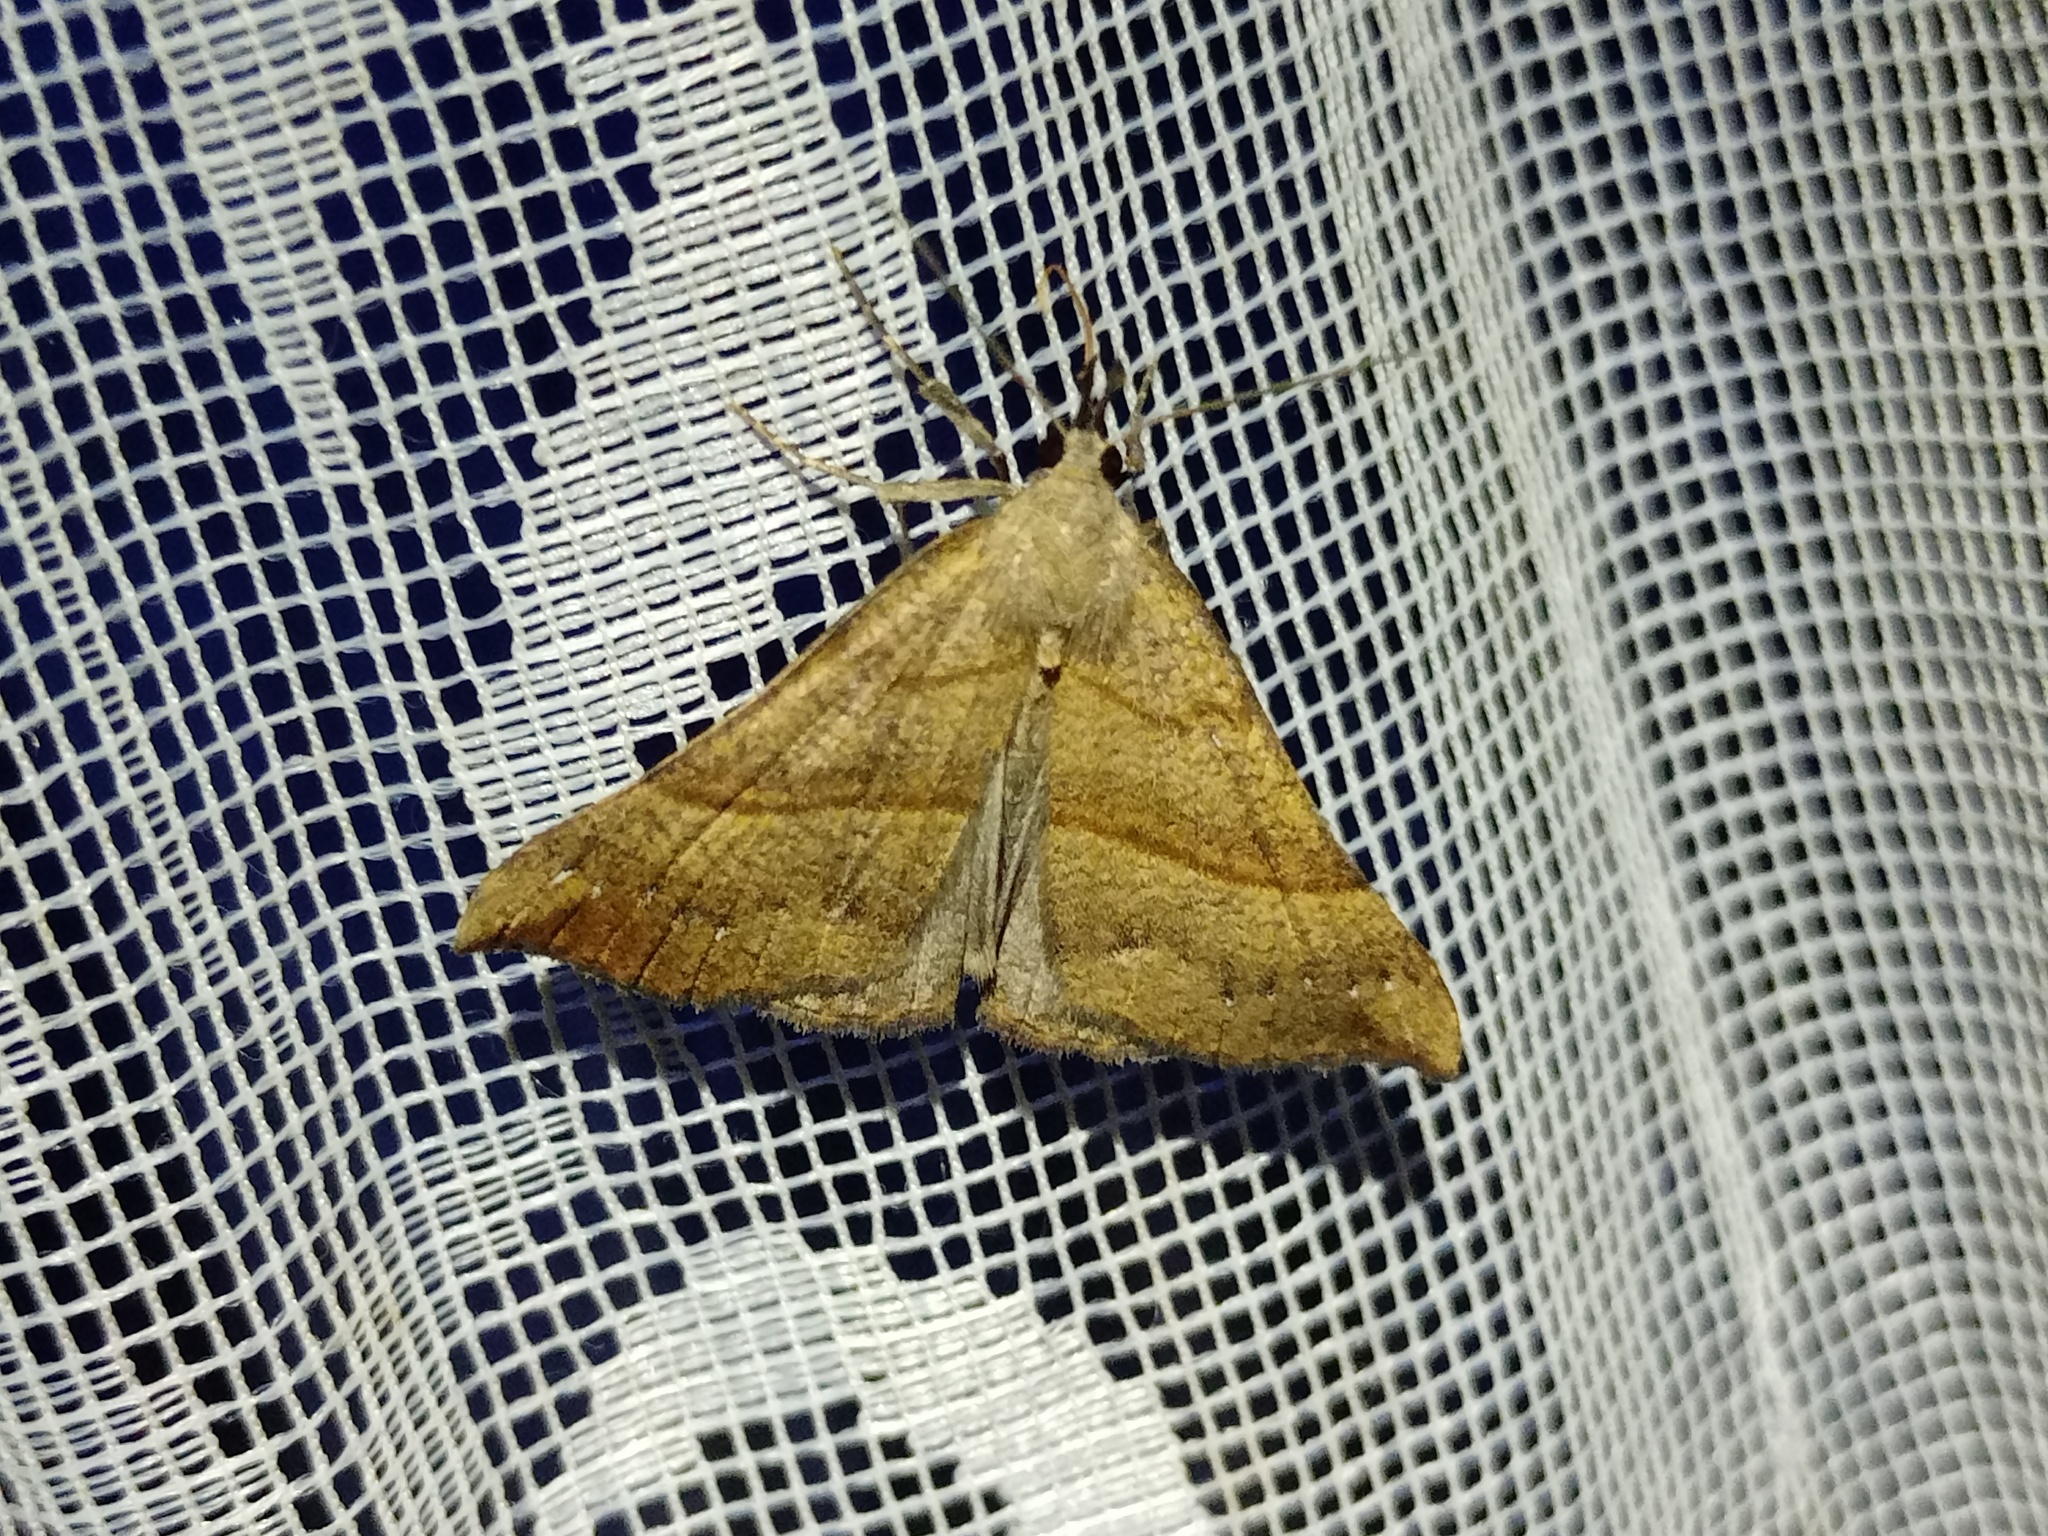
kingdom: Animalia
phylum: Arthropoda
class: Insecta
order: Lepidoptera
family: Erebidae
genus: Hypena
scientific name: Hypena proboscidalis
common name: Snout
